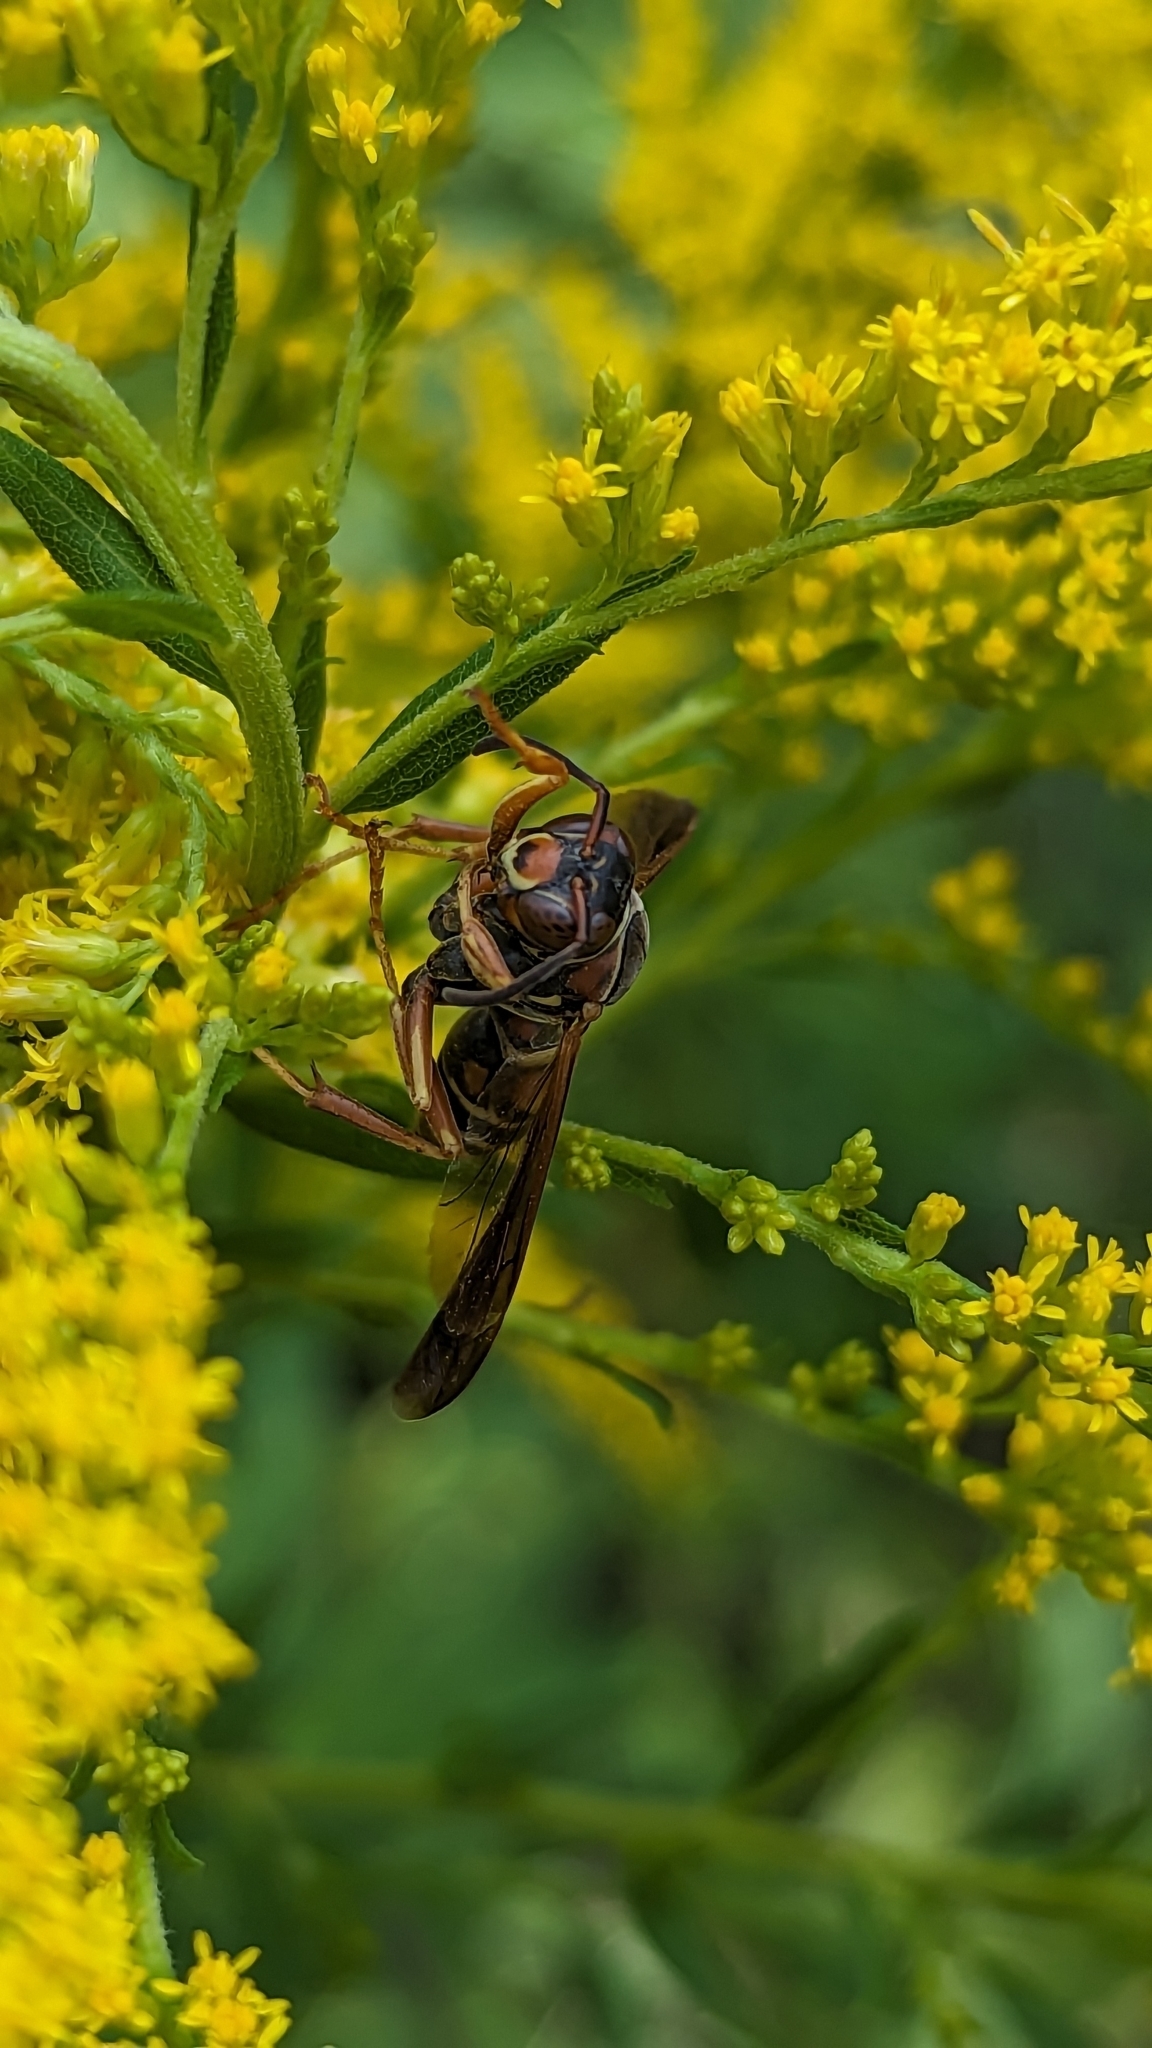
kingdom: Animalia
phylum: Arthropoda
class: Insecta
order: Hymenoptera
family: Eumenidae
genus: Polistes
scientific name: Polistes fuscatus
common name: Dark paper wasp
